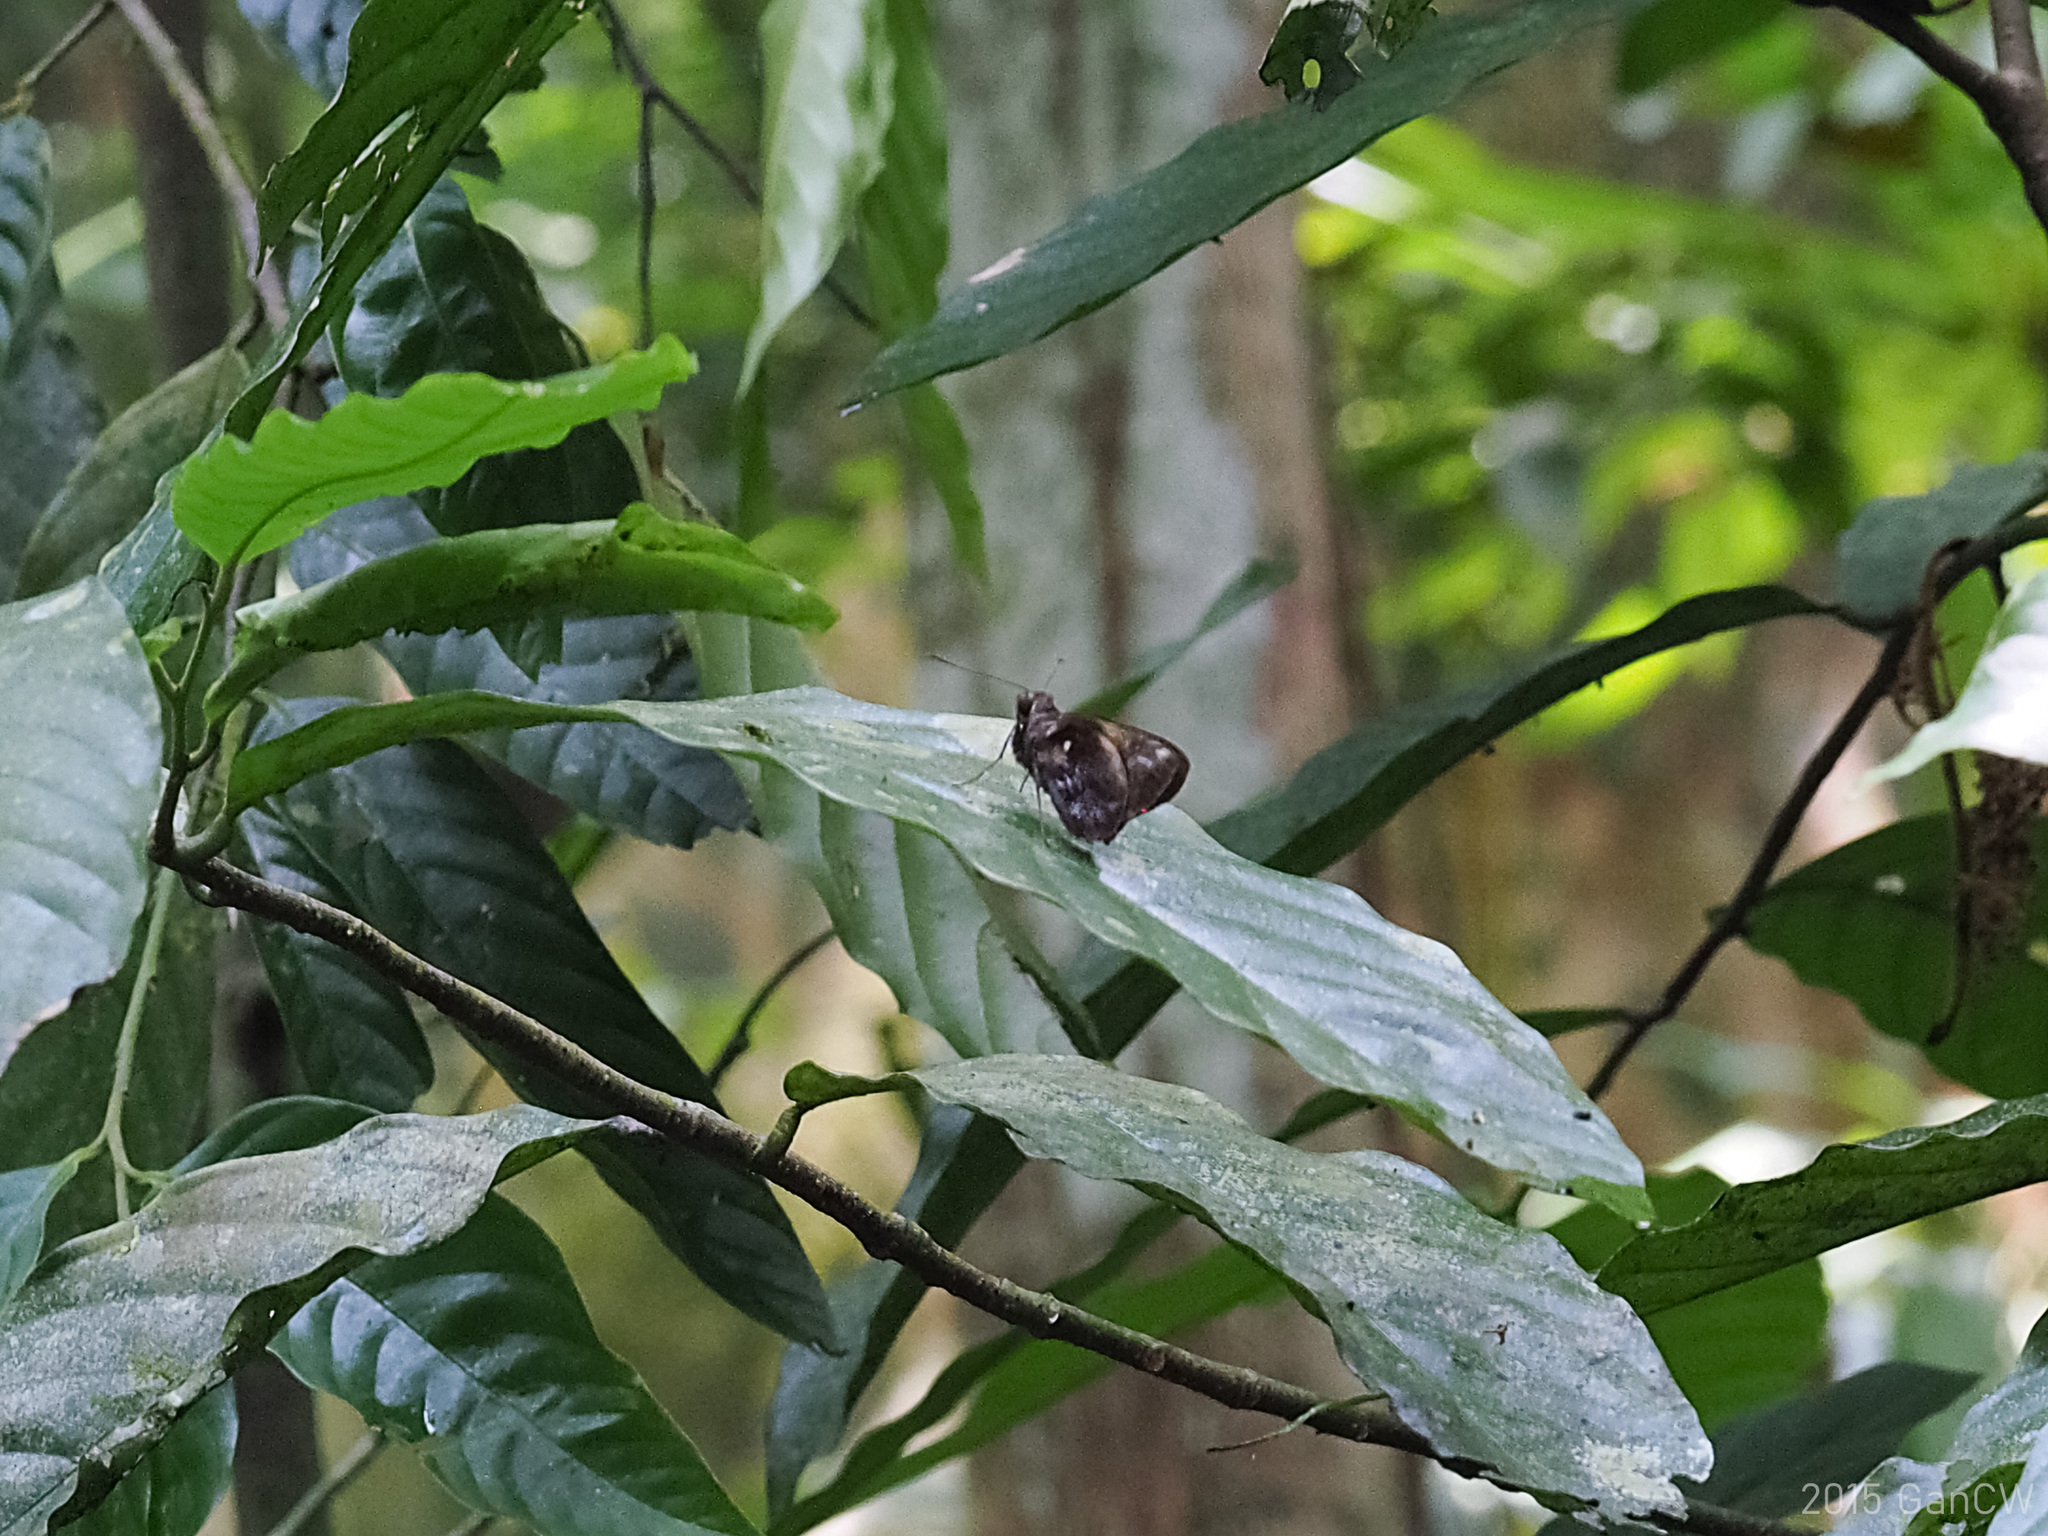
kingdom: Animalia
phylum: Arthropoda
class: Insecta
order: Lepidoptera
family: Hesperiidae
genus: Gangara
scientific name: Gangara sanguinocculus
